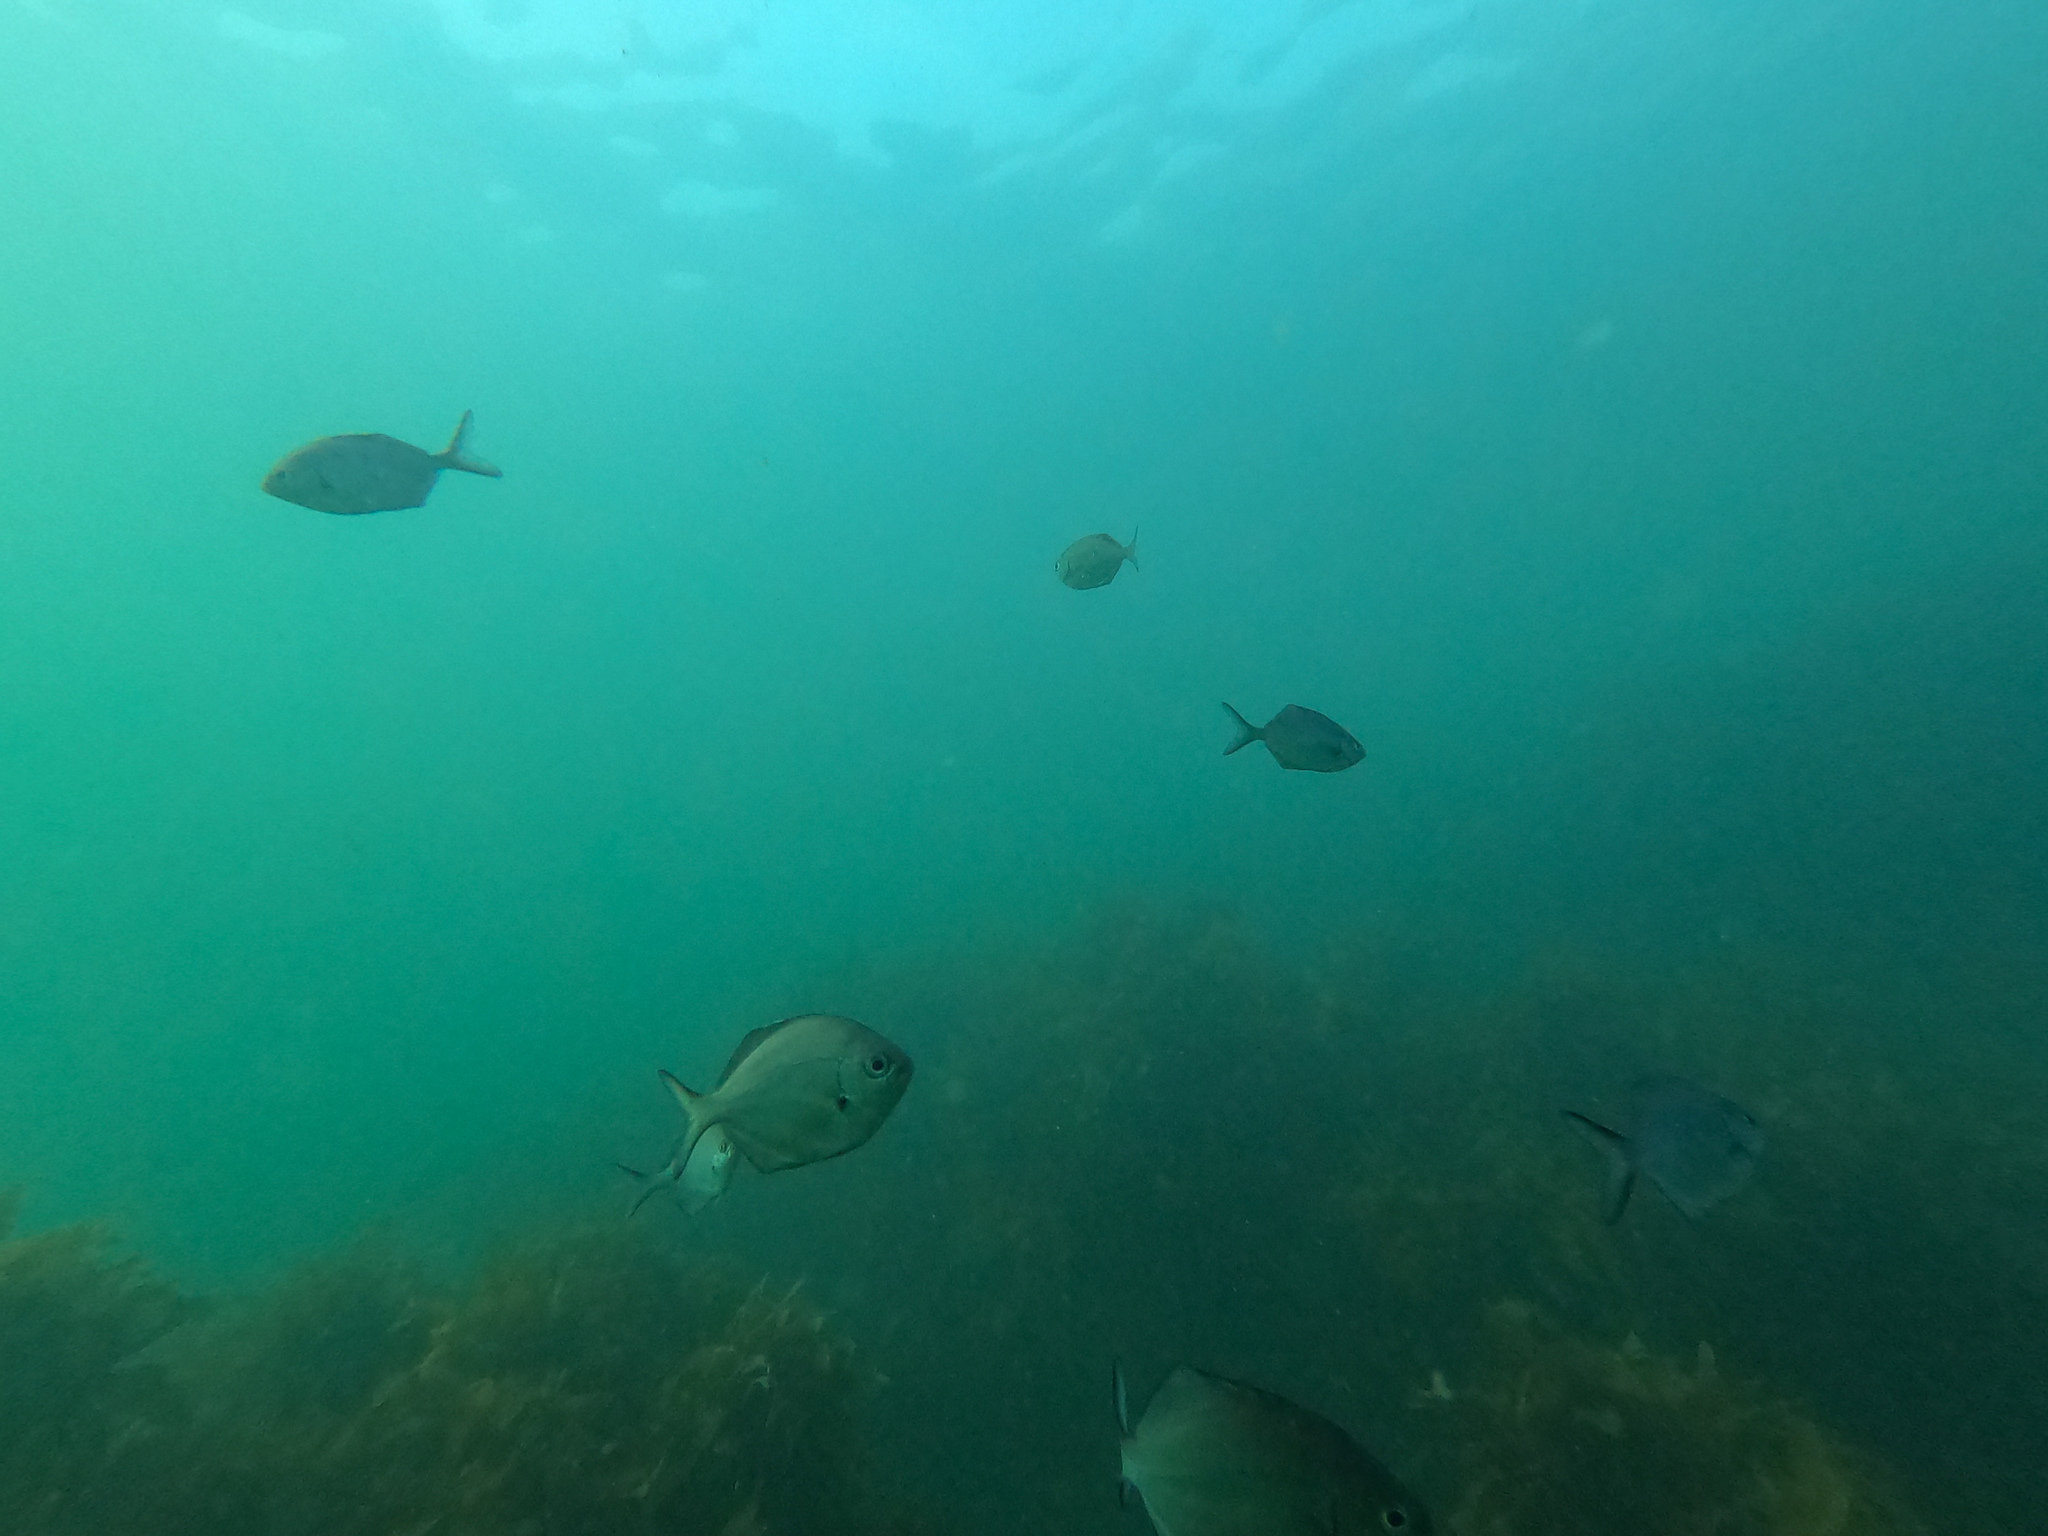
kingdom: Animalia
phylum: Chordata
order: Perciformes
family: Kyphosidae
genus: Scorpis
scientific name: Scorpis lineolata
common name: Sweep
